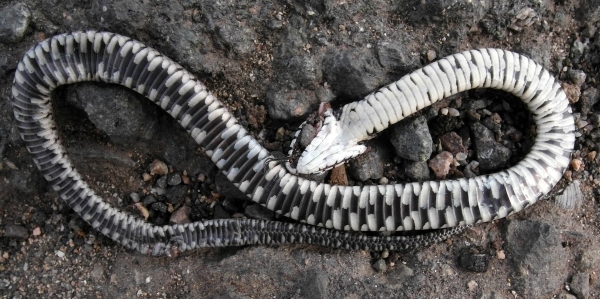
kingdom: Animalia
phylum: Chordata
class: Squamata
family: Colubridae
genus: Natrix
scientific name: Natrix natrix
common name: Grass snake
